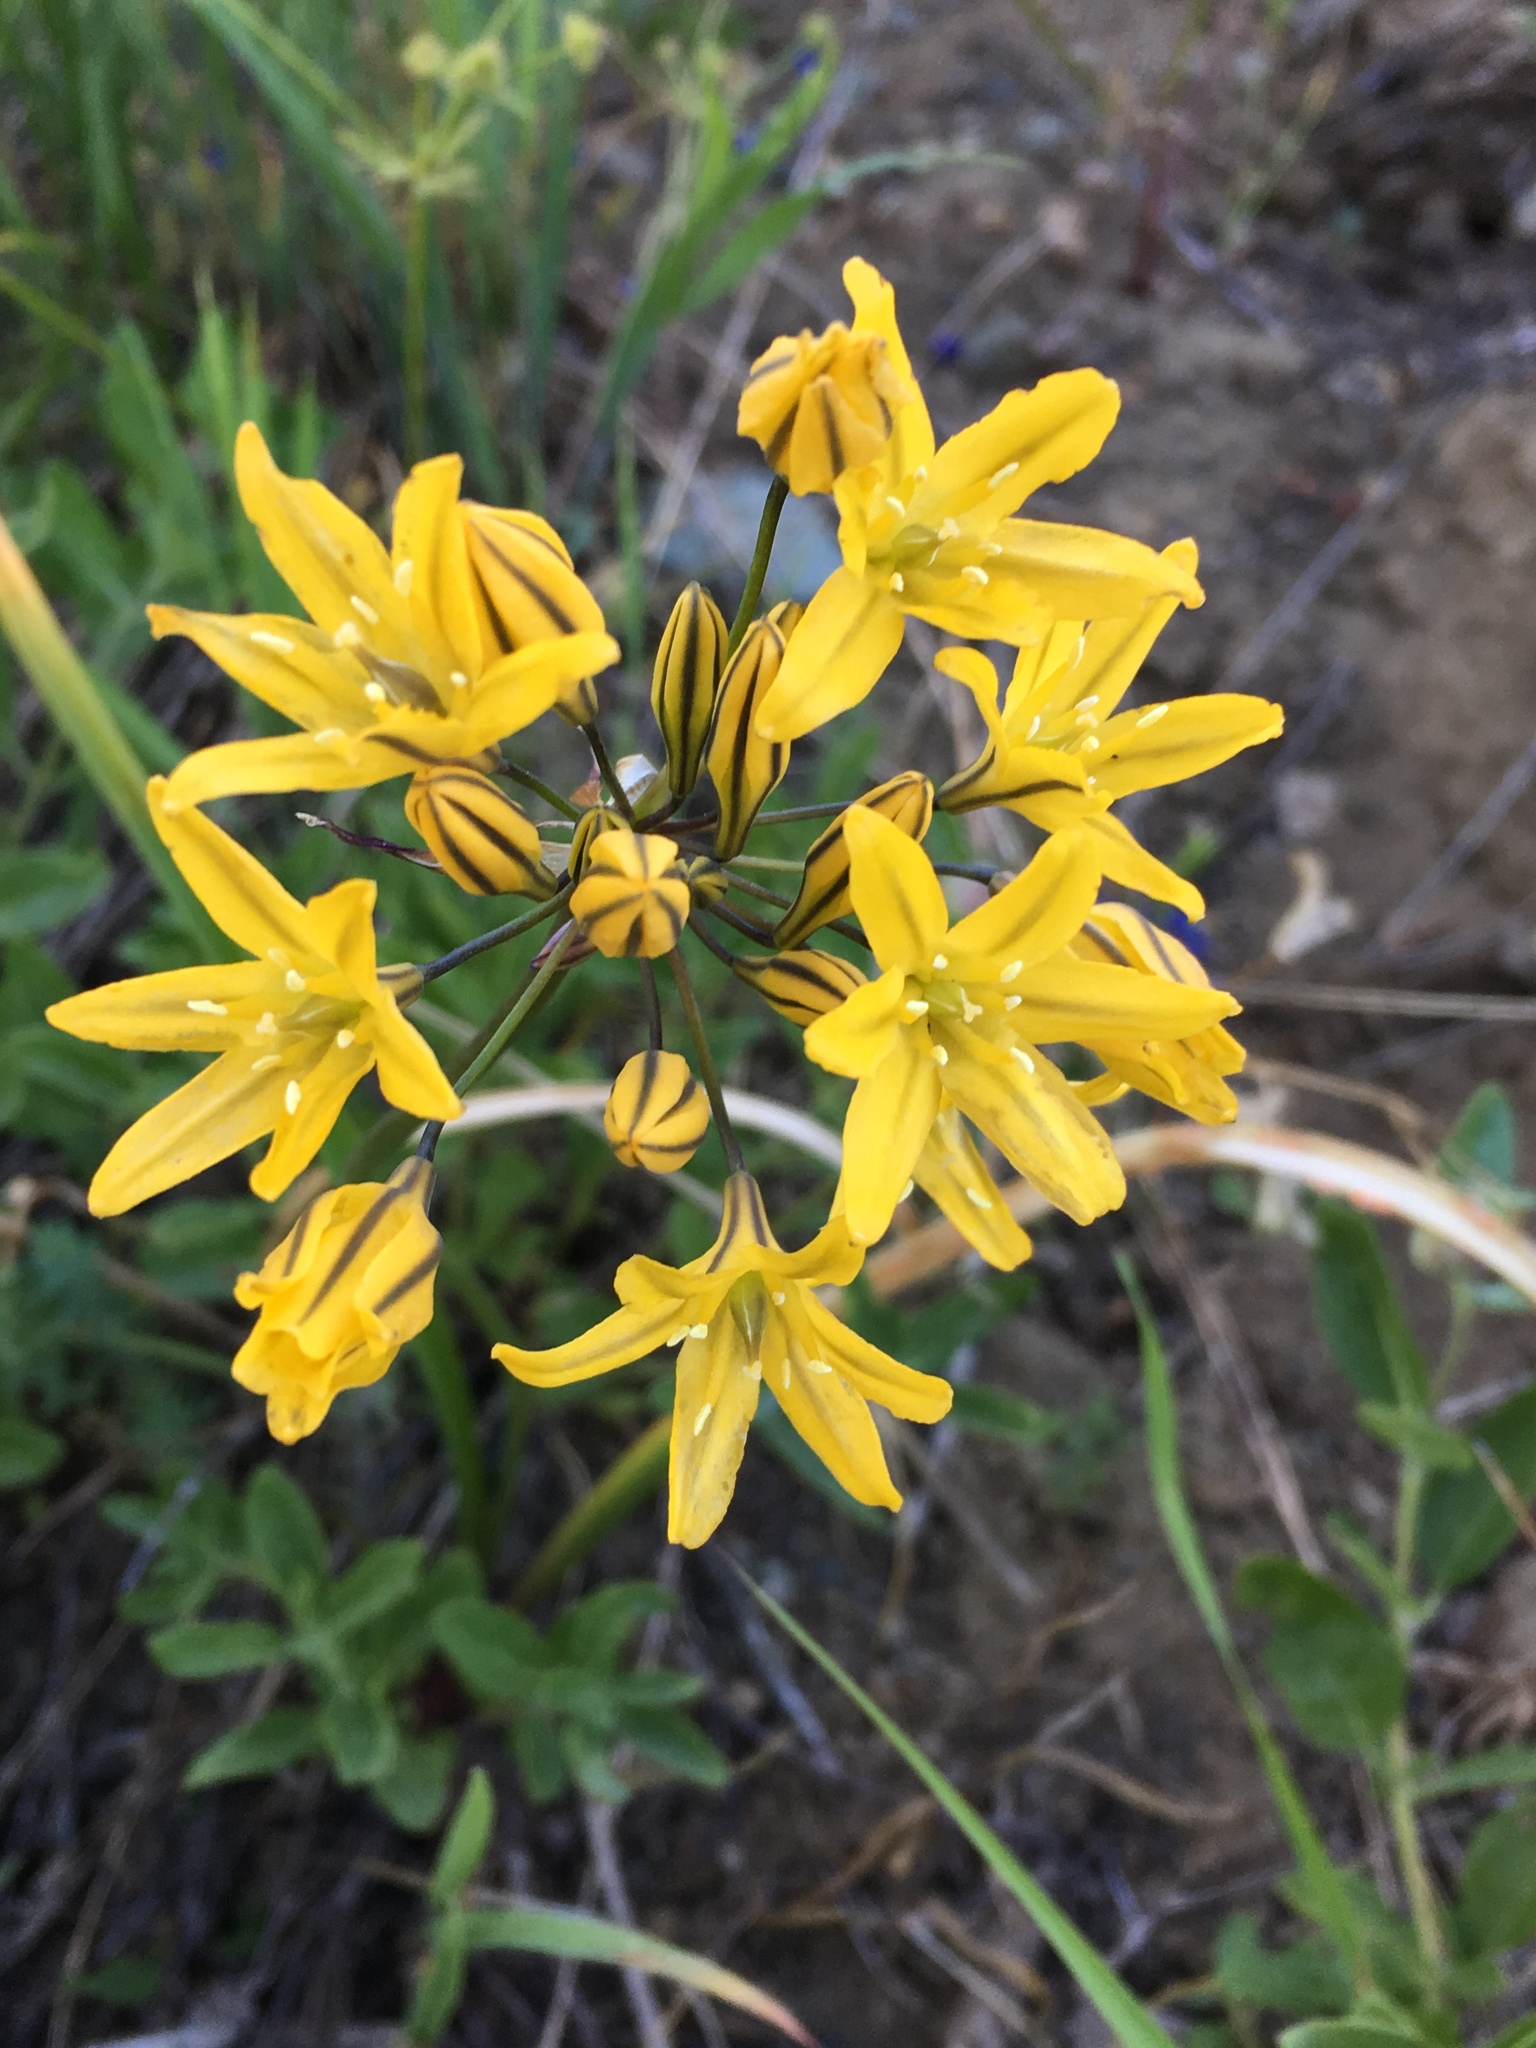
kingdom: Plantae
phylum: Tracheophyta
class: Liliopsida
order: Asparagales
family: Asparagaceae
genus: Triteleia
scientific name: Triteleia crocea
